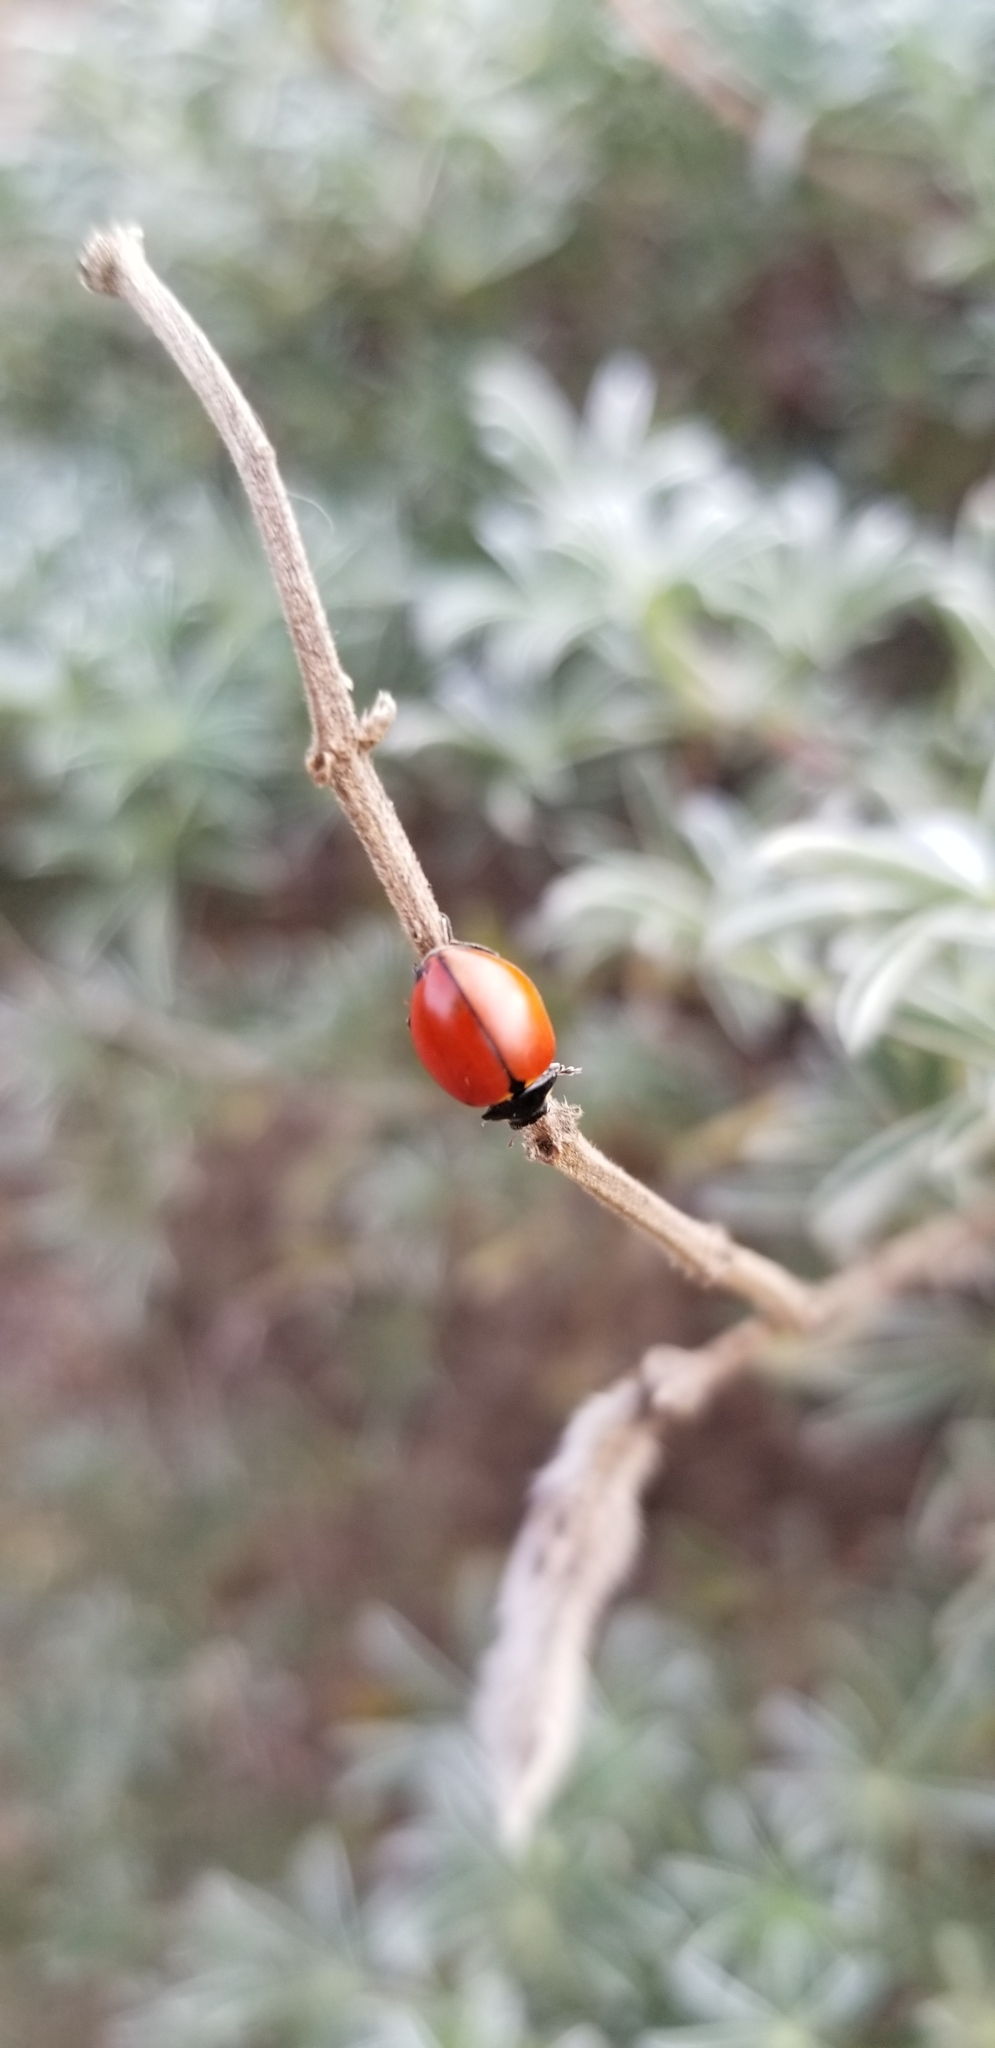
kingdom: Animalia
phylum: Arthropoda
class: Insecta
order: Coleoptera
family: Coccinellidae
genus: Coccinella
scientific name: Coccinella californica
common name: Lady beetle
